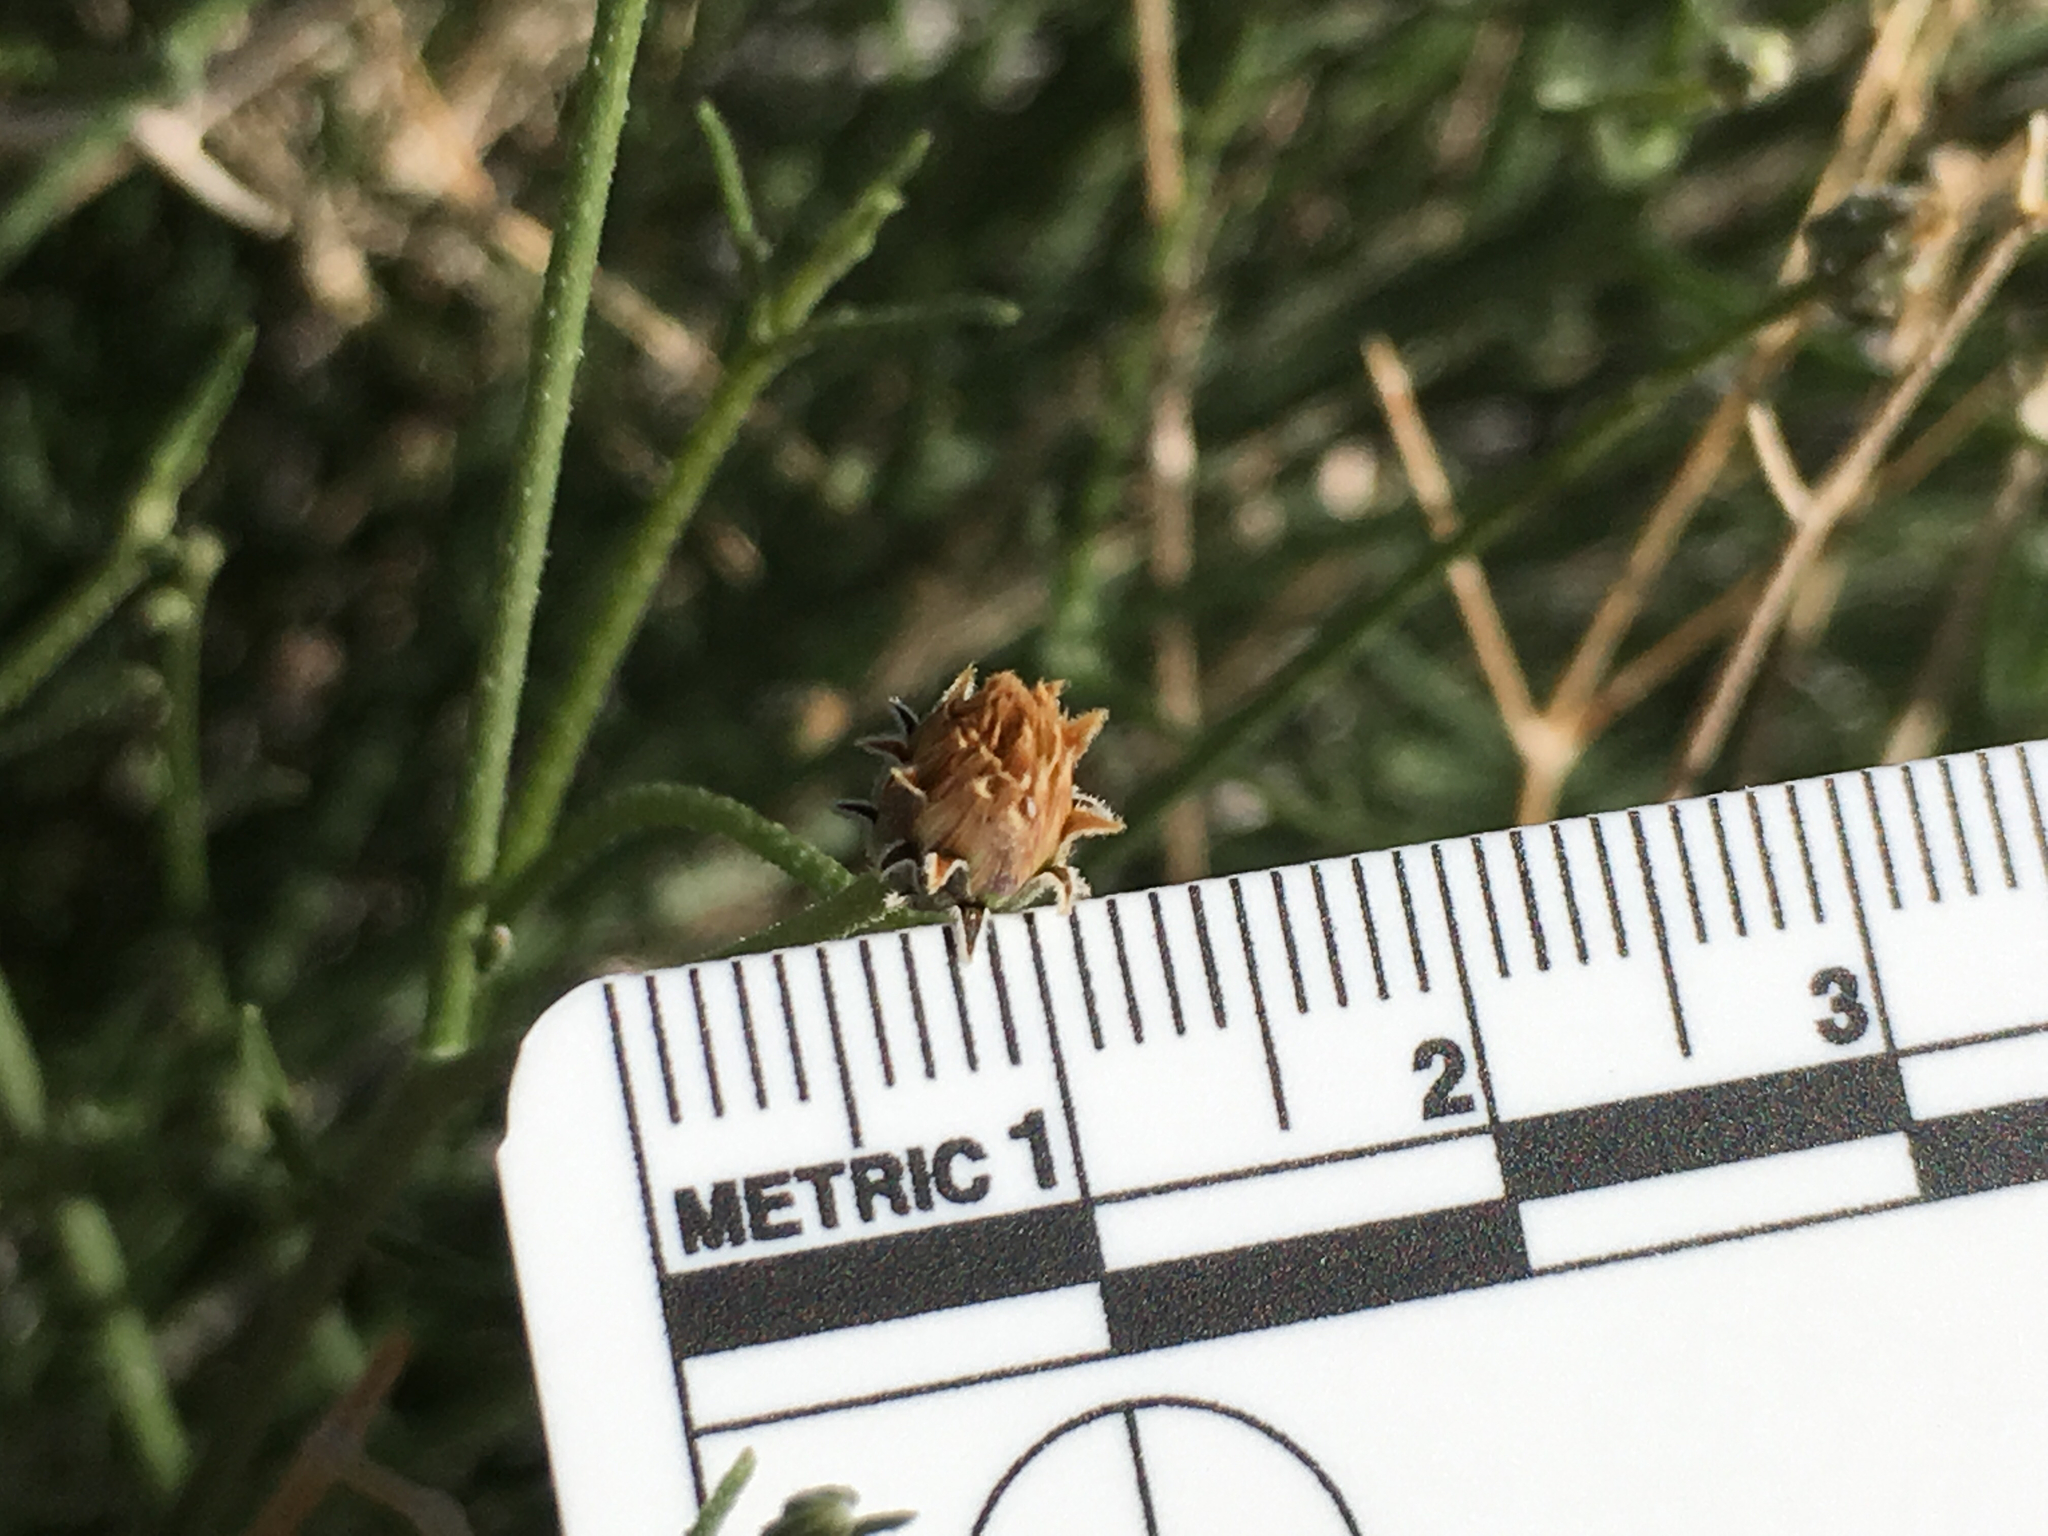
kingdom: Plantae
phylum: Tracheophyta
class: Magnoliopsida
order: Asterales
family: Asteraceae
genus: Bebbia
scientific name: Bebbia juncea
